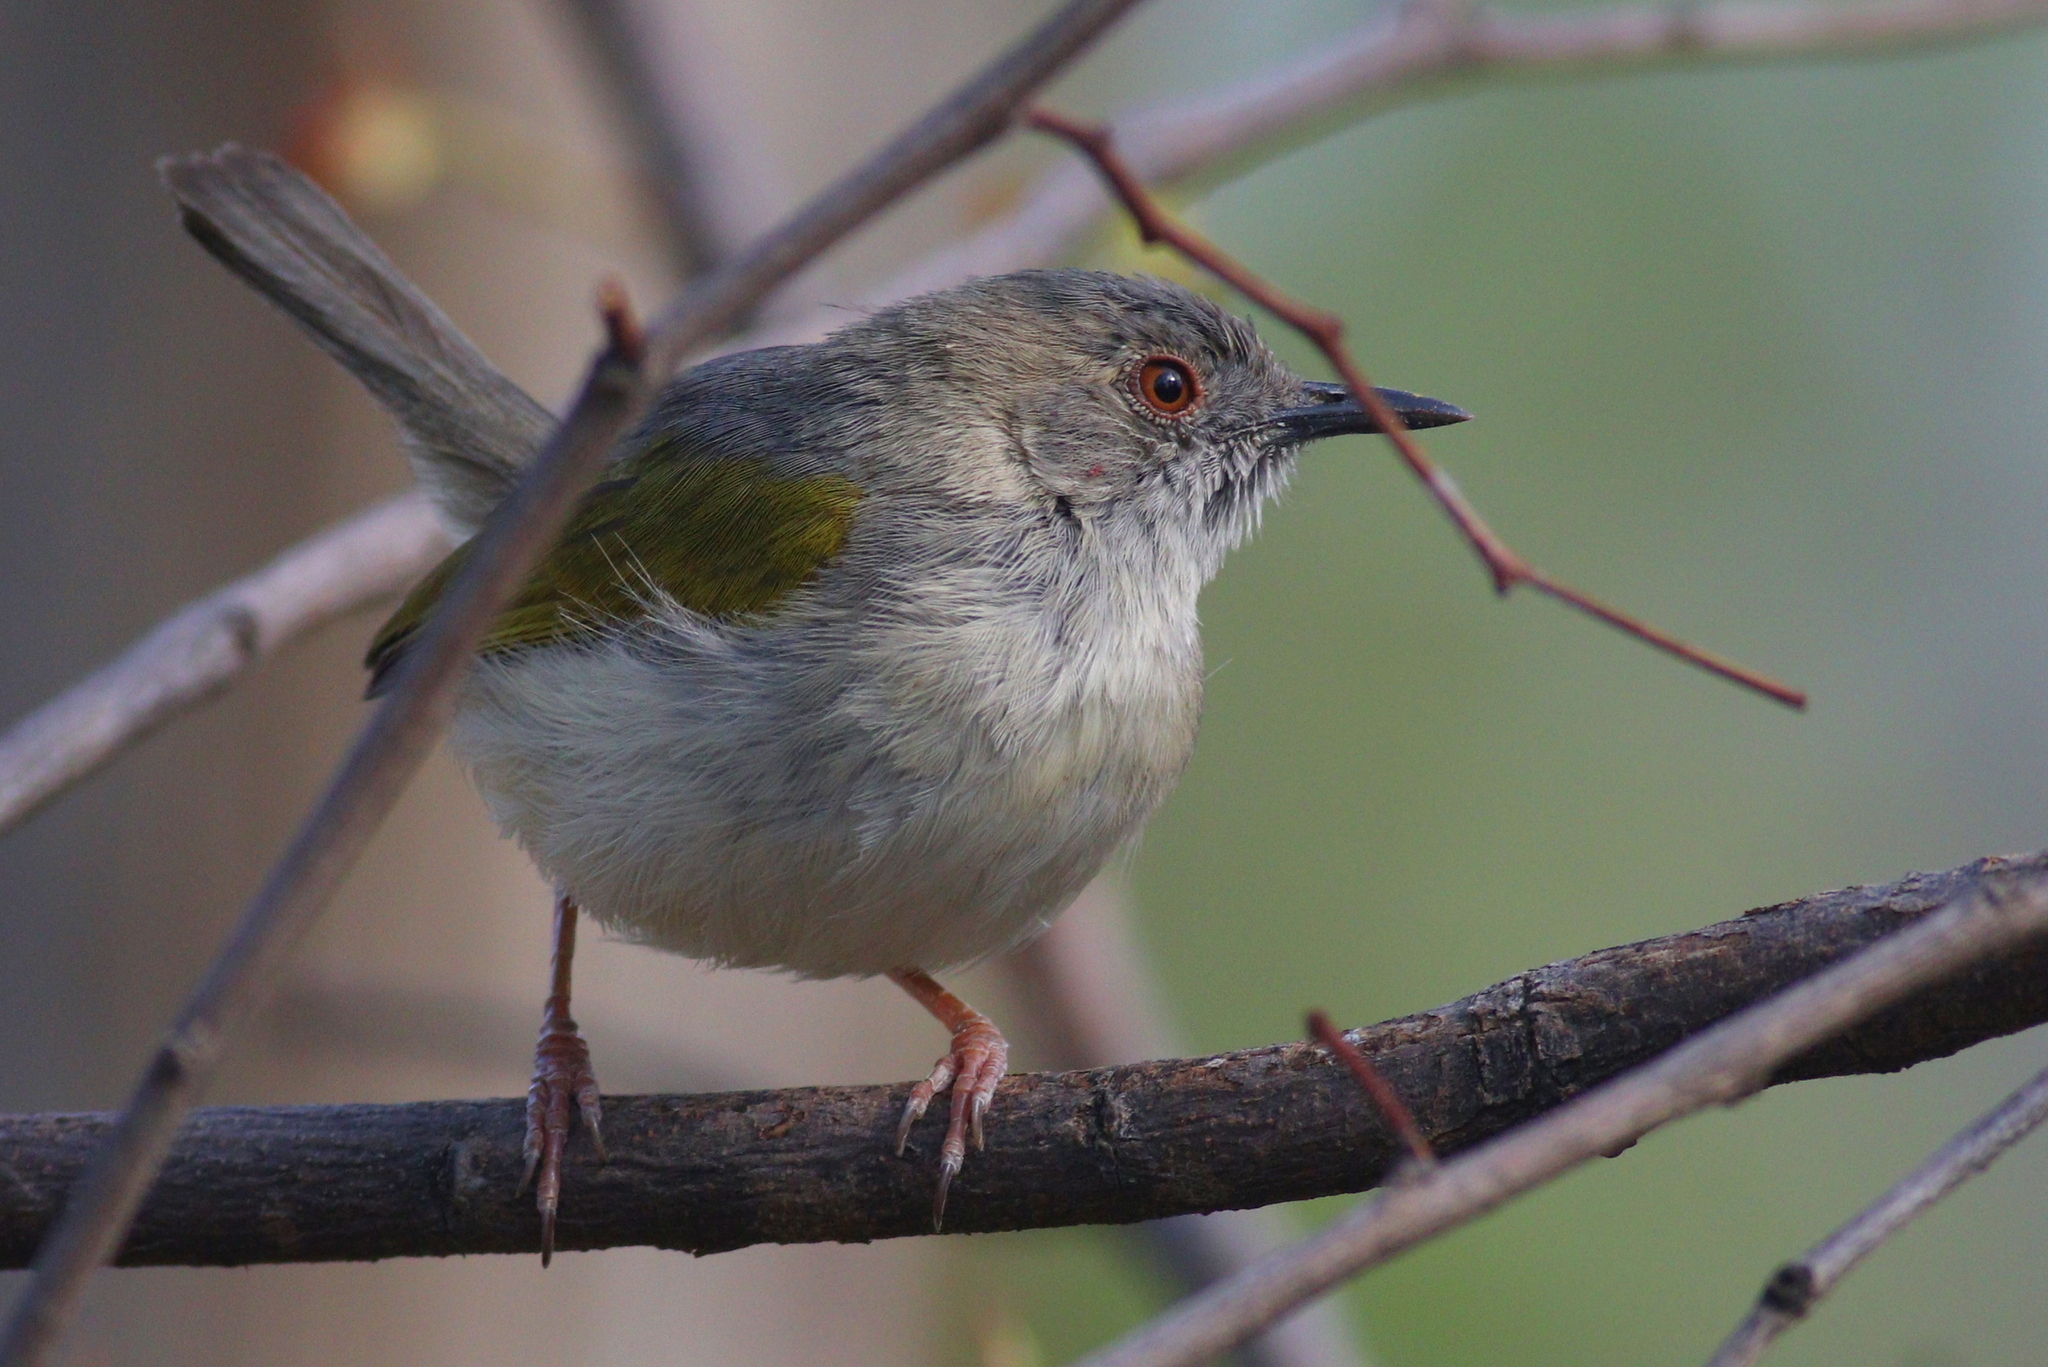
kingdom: Animalia
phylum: Chordata
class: Aves
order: Passeriformes
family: Cisticolidae
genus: Camaroptera
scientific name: Camaroptera brachyura
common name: Green-backed camaroptera
